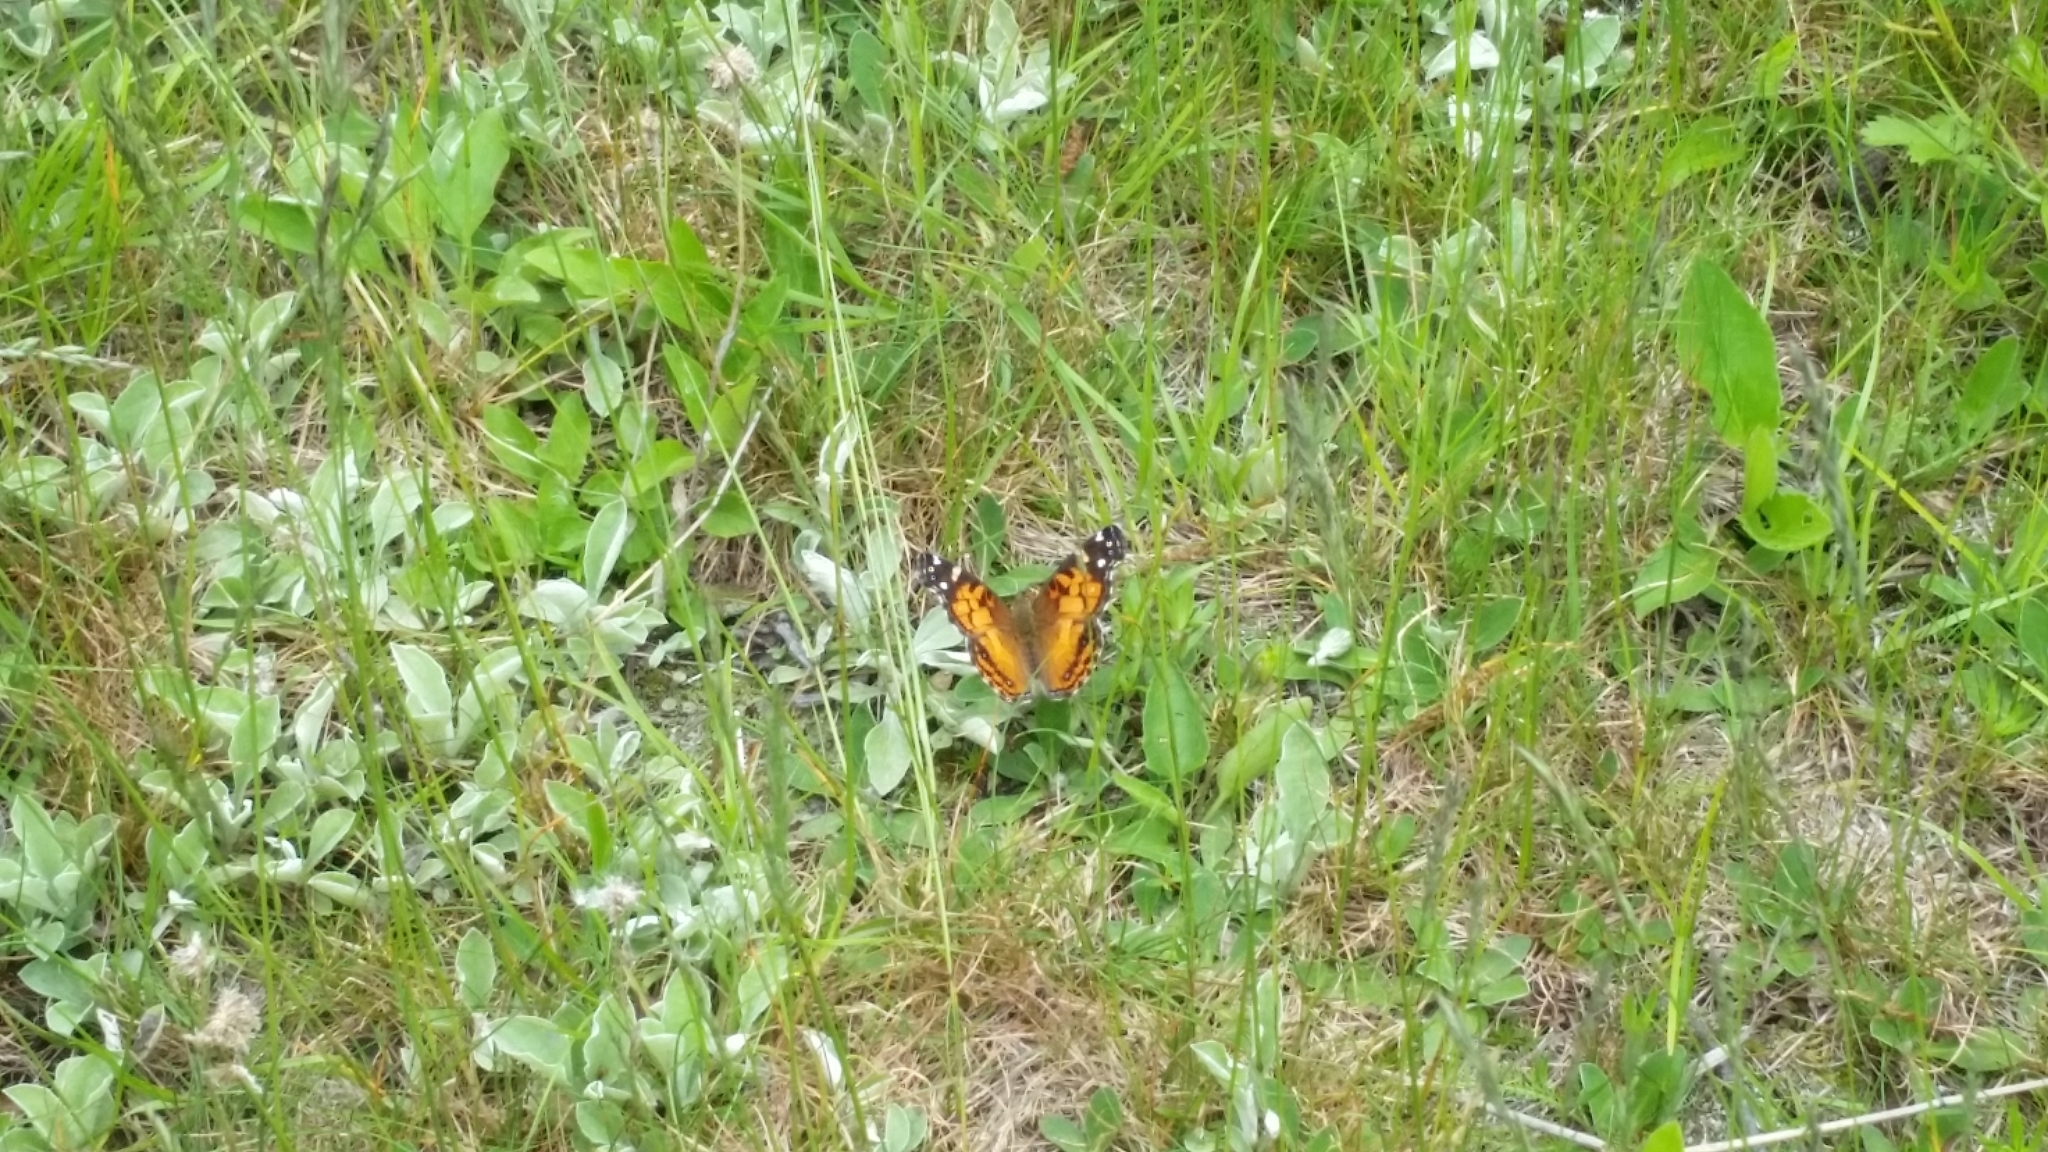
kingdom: Animalia
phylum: Arthropoda
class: Insecta
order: Lepidoptera
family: Nymphalidae
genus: Vanessa
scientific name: Vanessa virginiensis
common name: American lady
